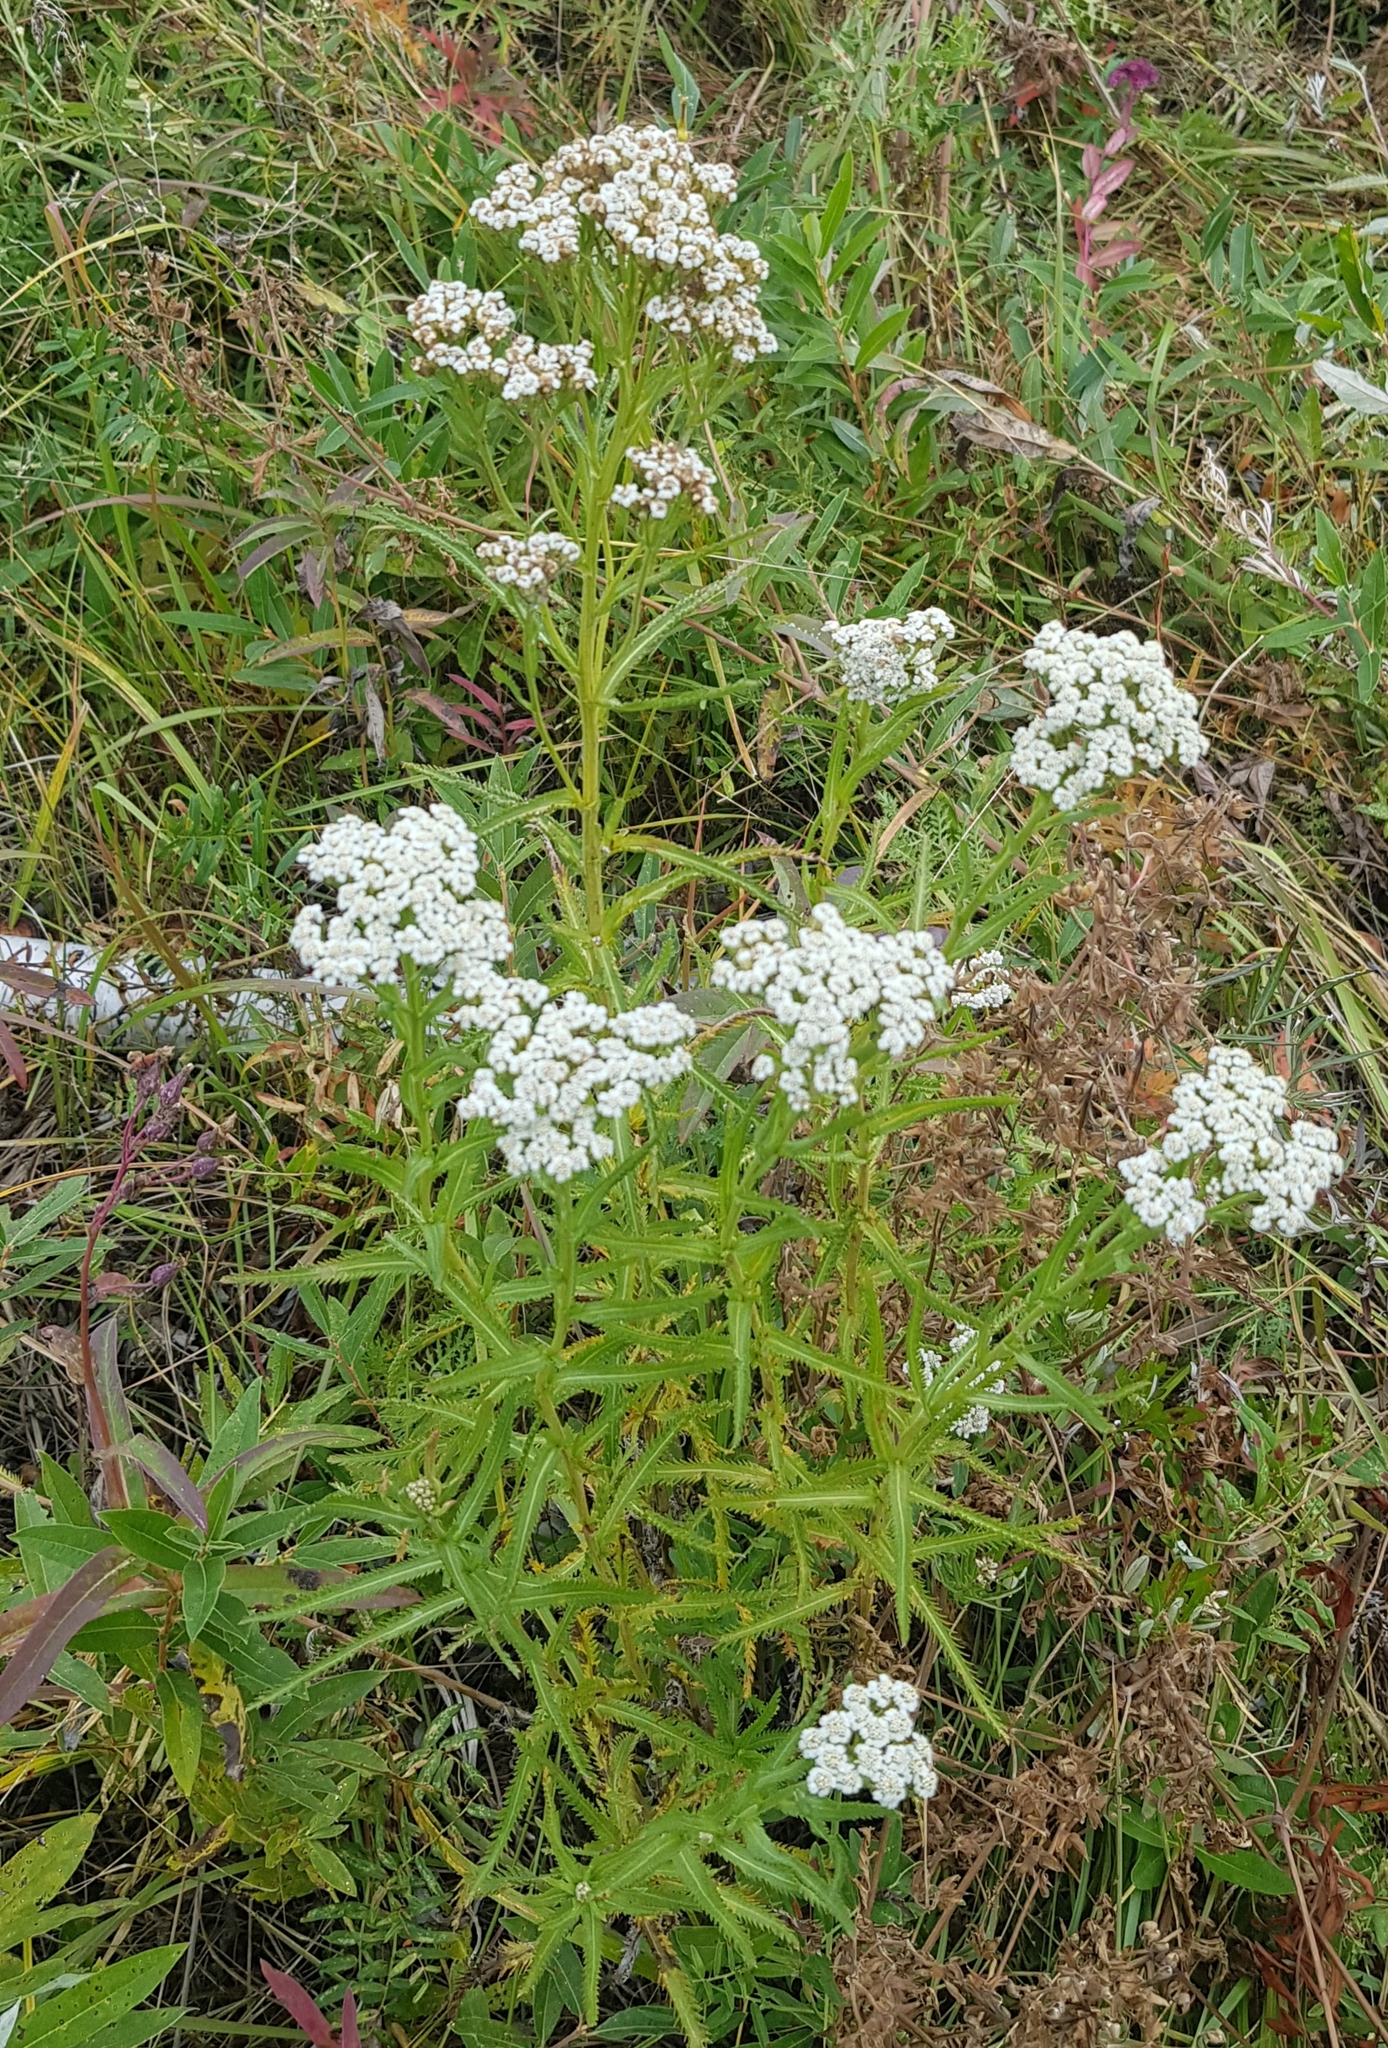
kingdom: Plantae
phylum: Tracheophyta
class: Magnoliopsida
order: Asterales
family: Asteraceae
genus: Achillea
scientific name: Achillea alpina
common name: Siberian yarrow
